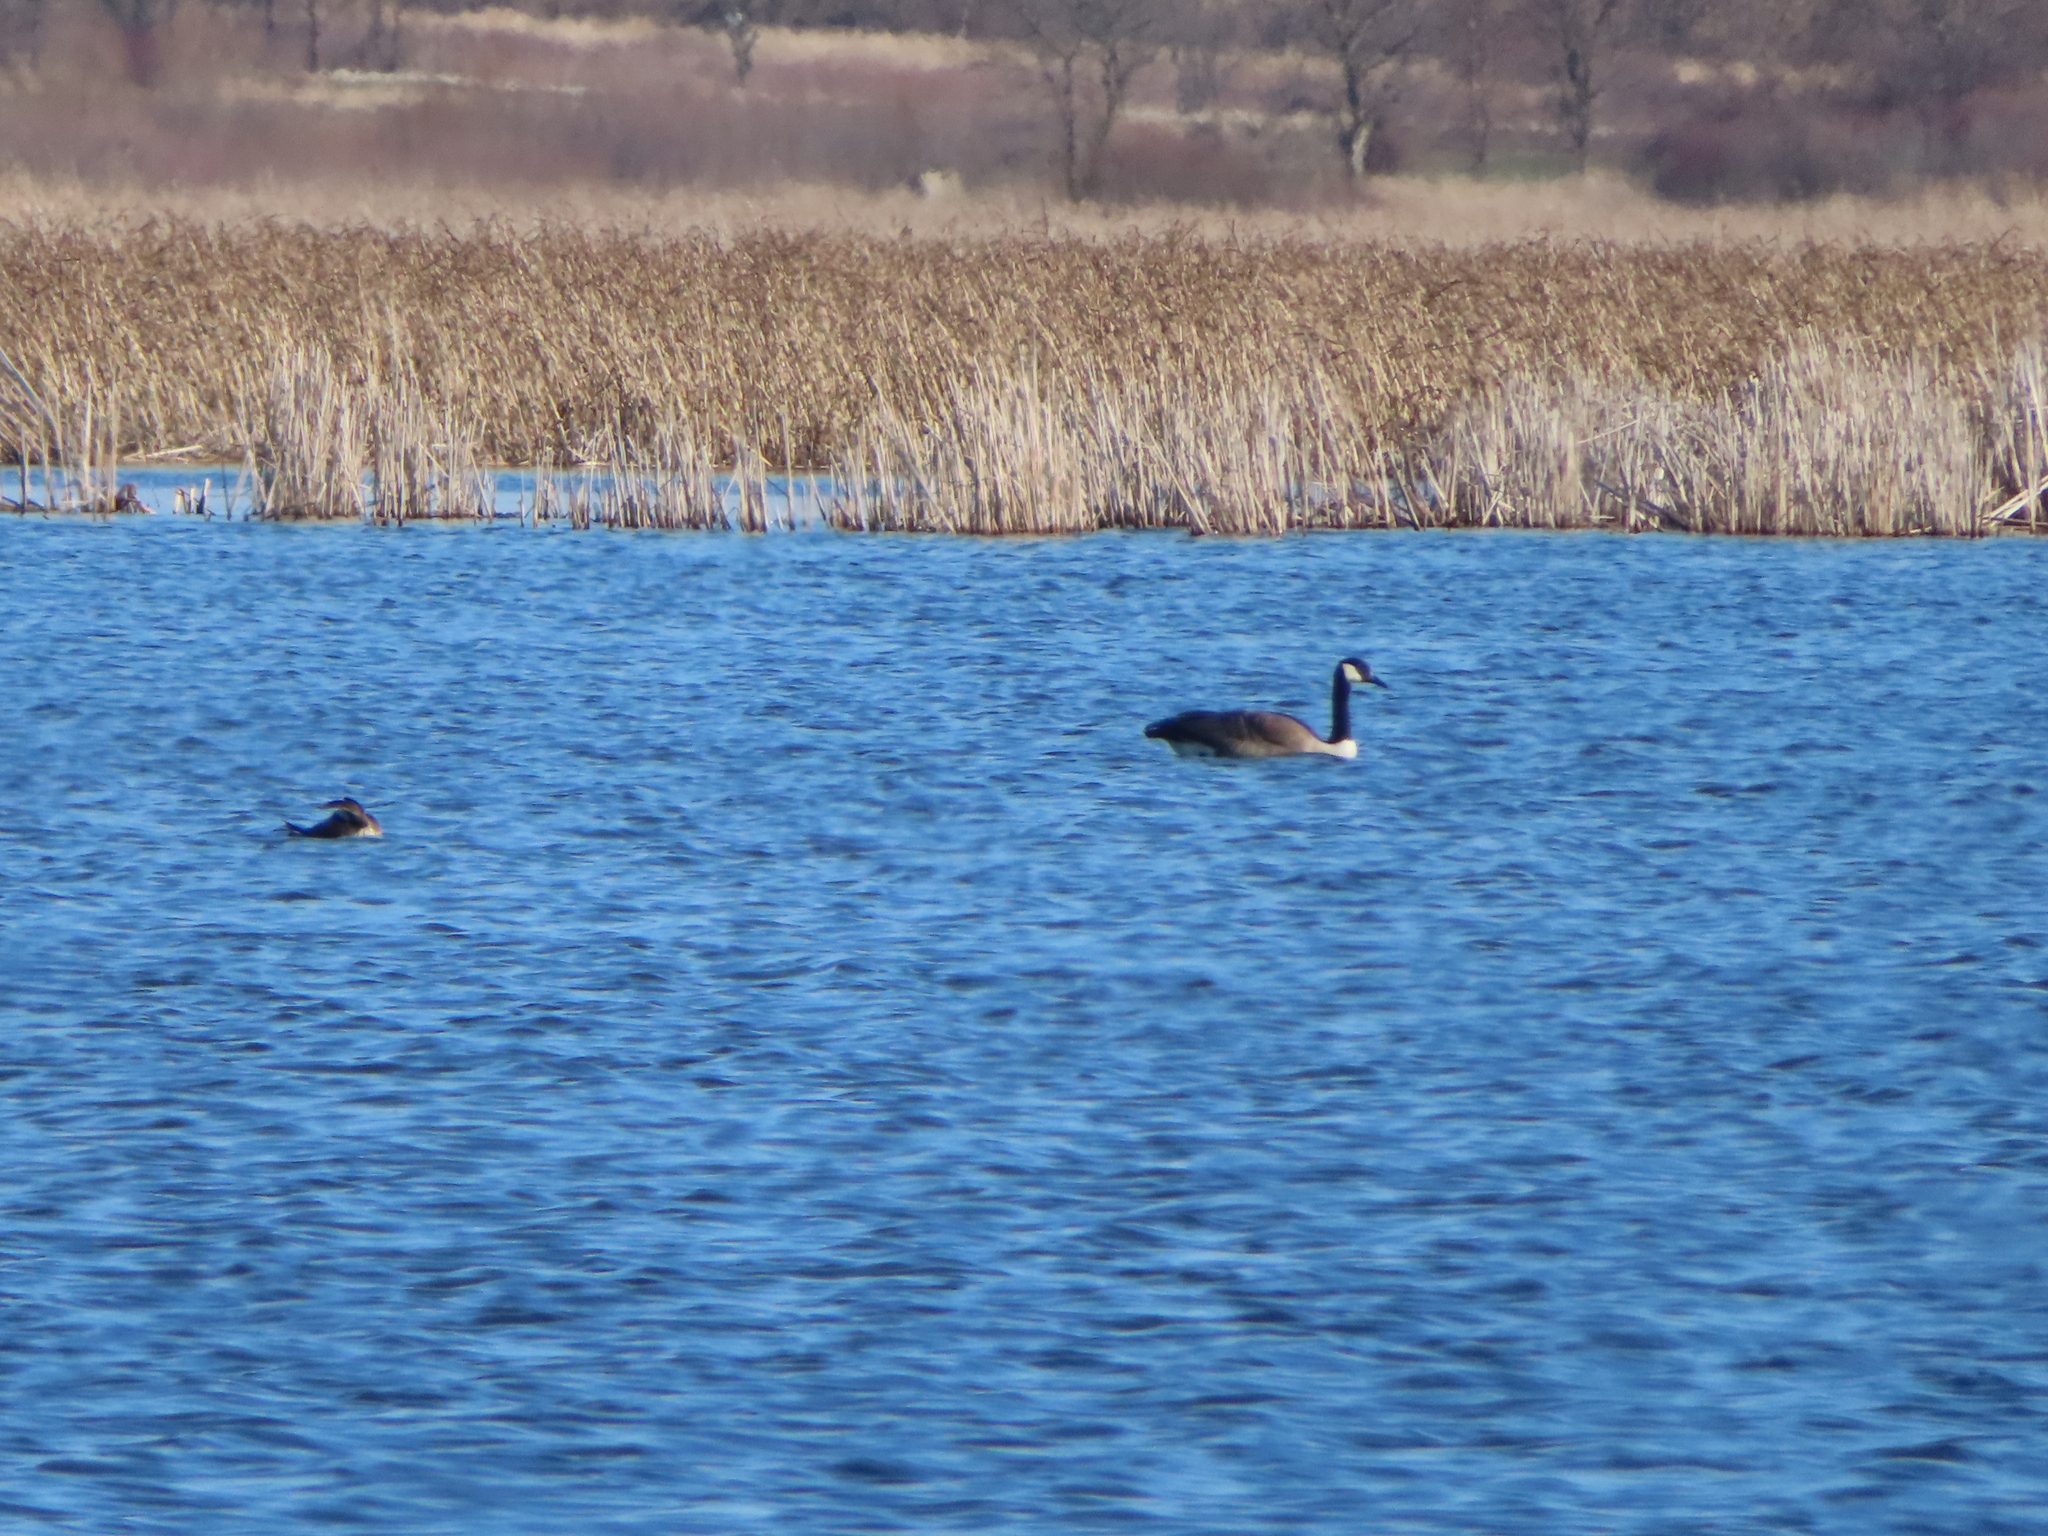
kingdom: Animalia
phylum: Chordata
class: Aves
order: Anseriformes
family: Anatidae
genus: Branta
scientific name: Branta canadensis
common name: Canada goose
